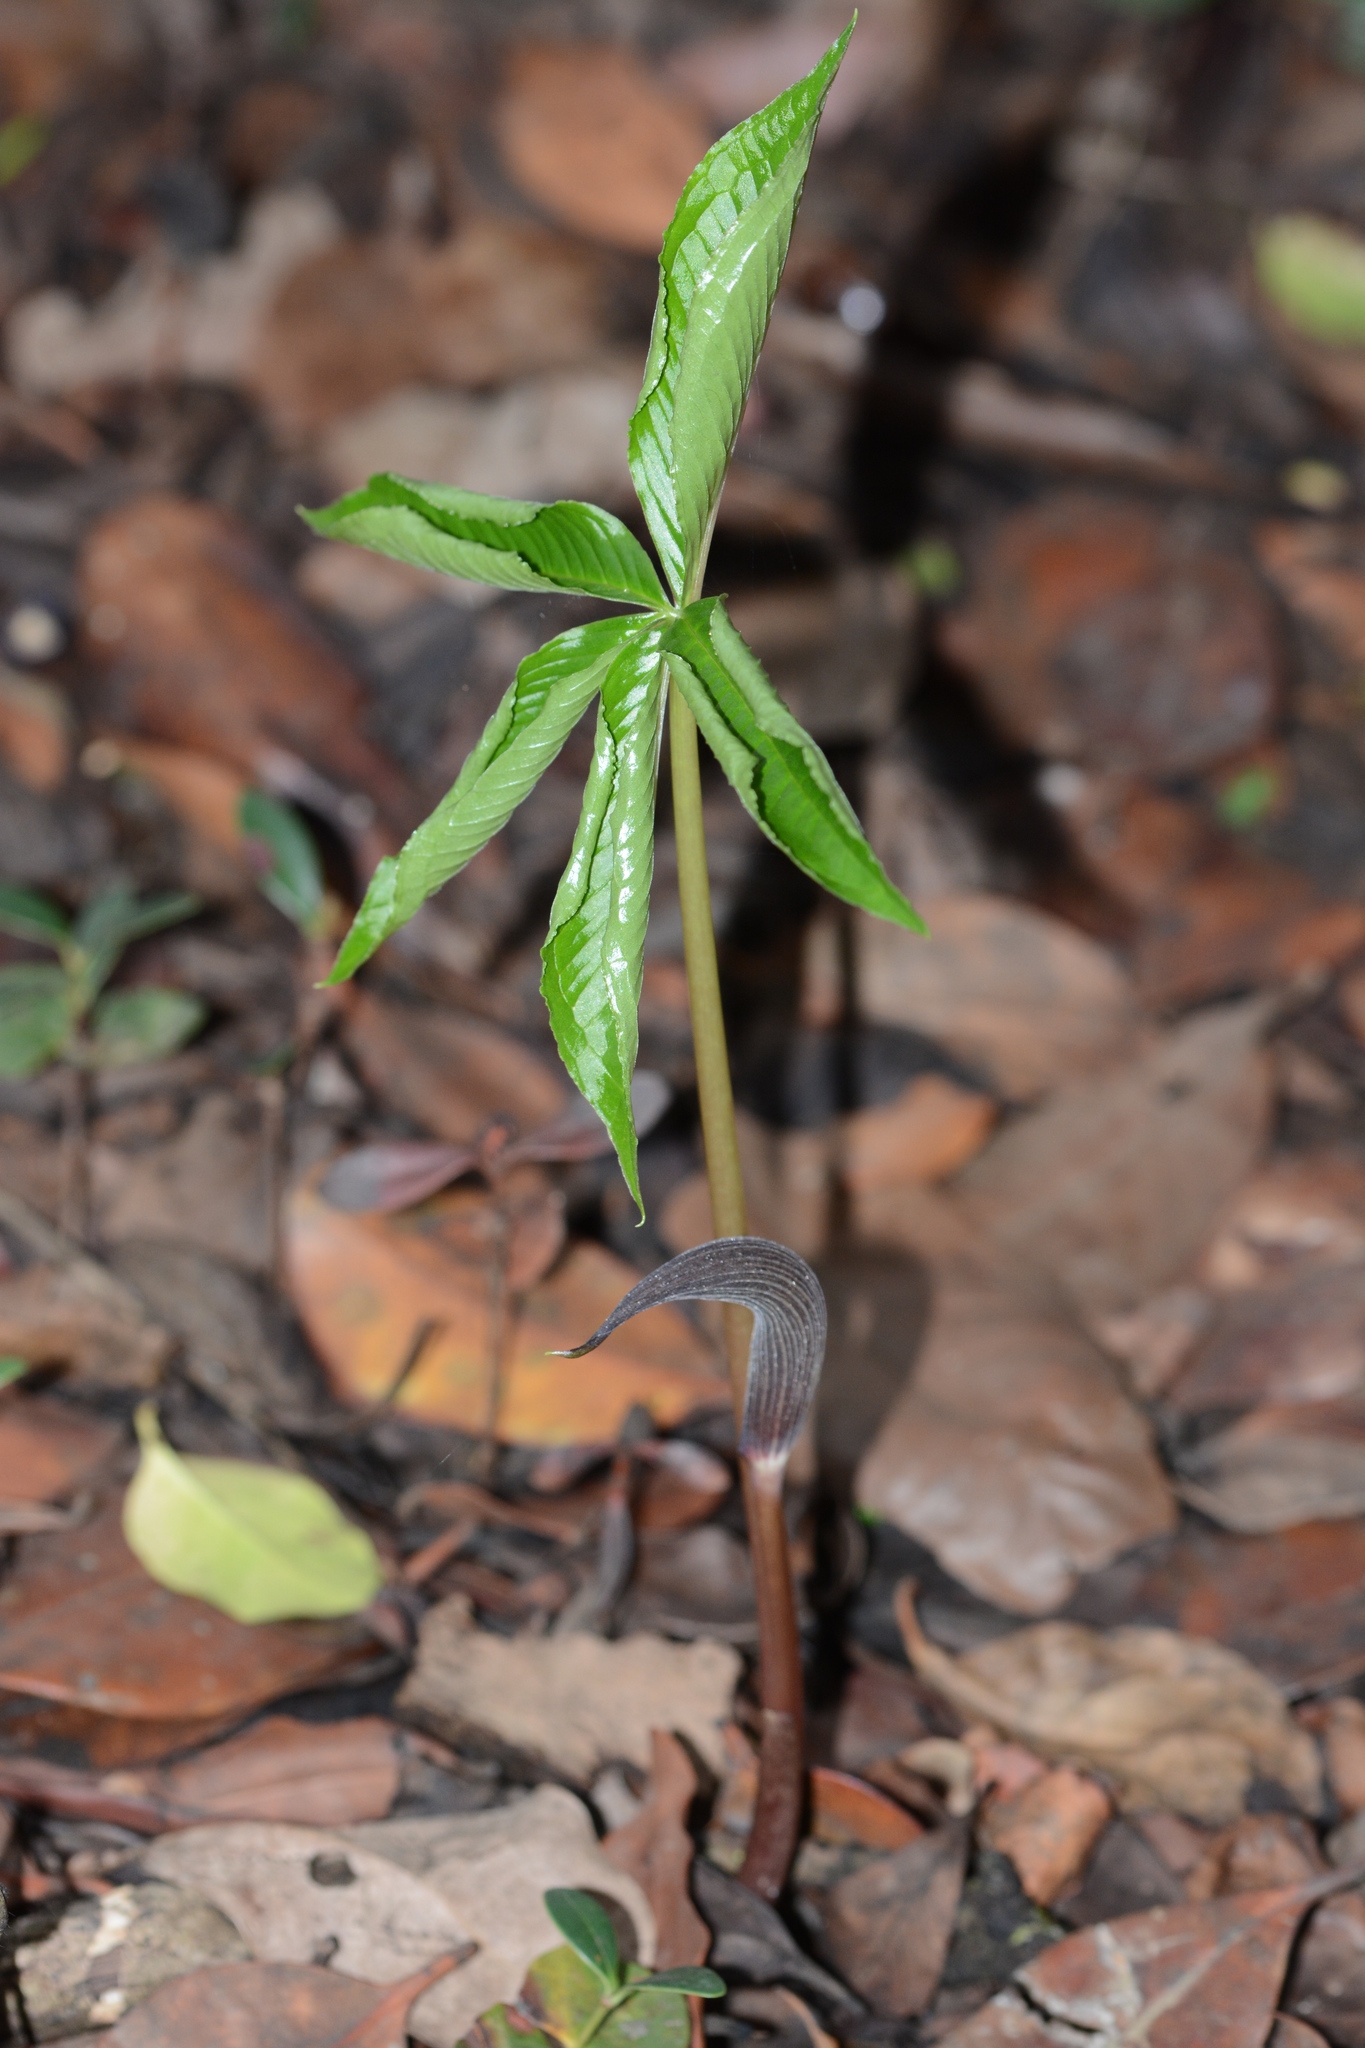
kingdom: Plantae
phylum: Tracheophyta
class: Liliopsida
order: Alismatales
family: Araceae
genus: Arisaema
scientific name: Arisaema murrayi
